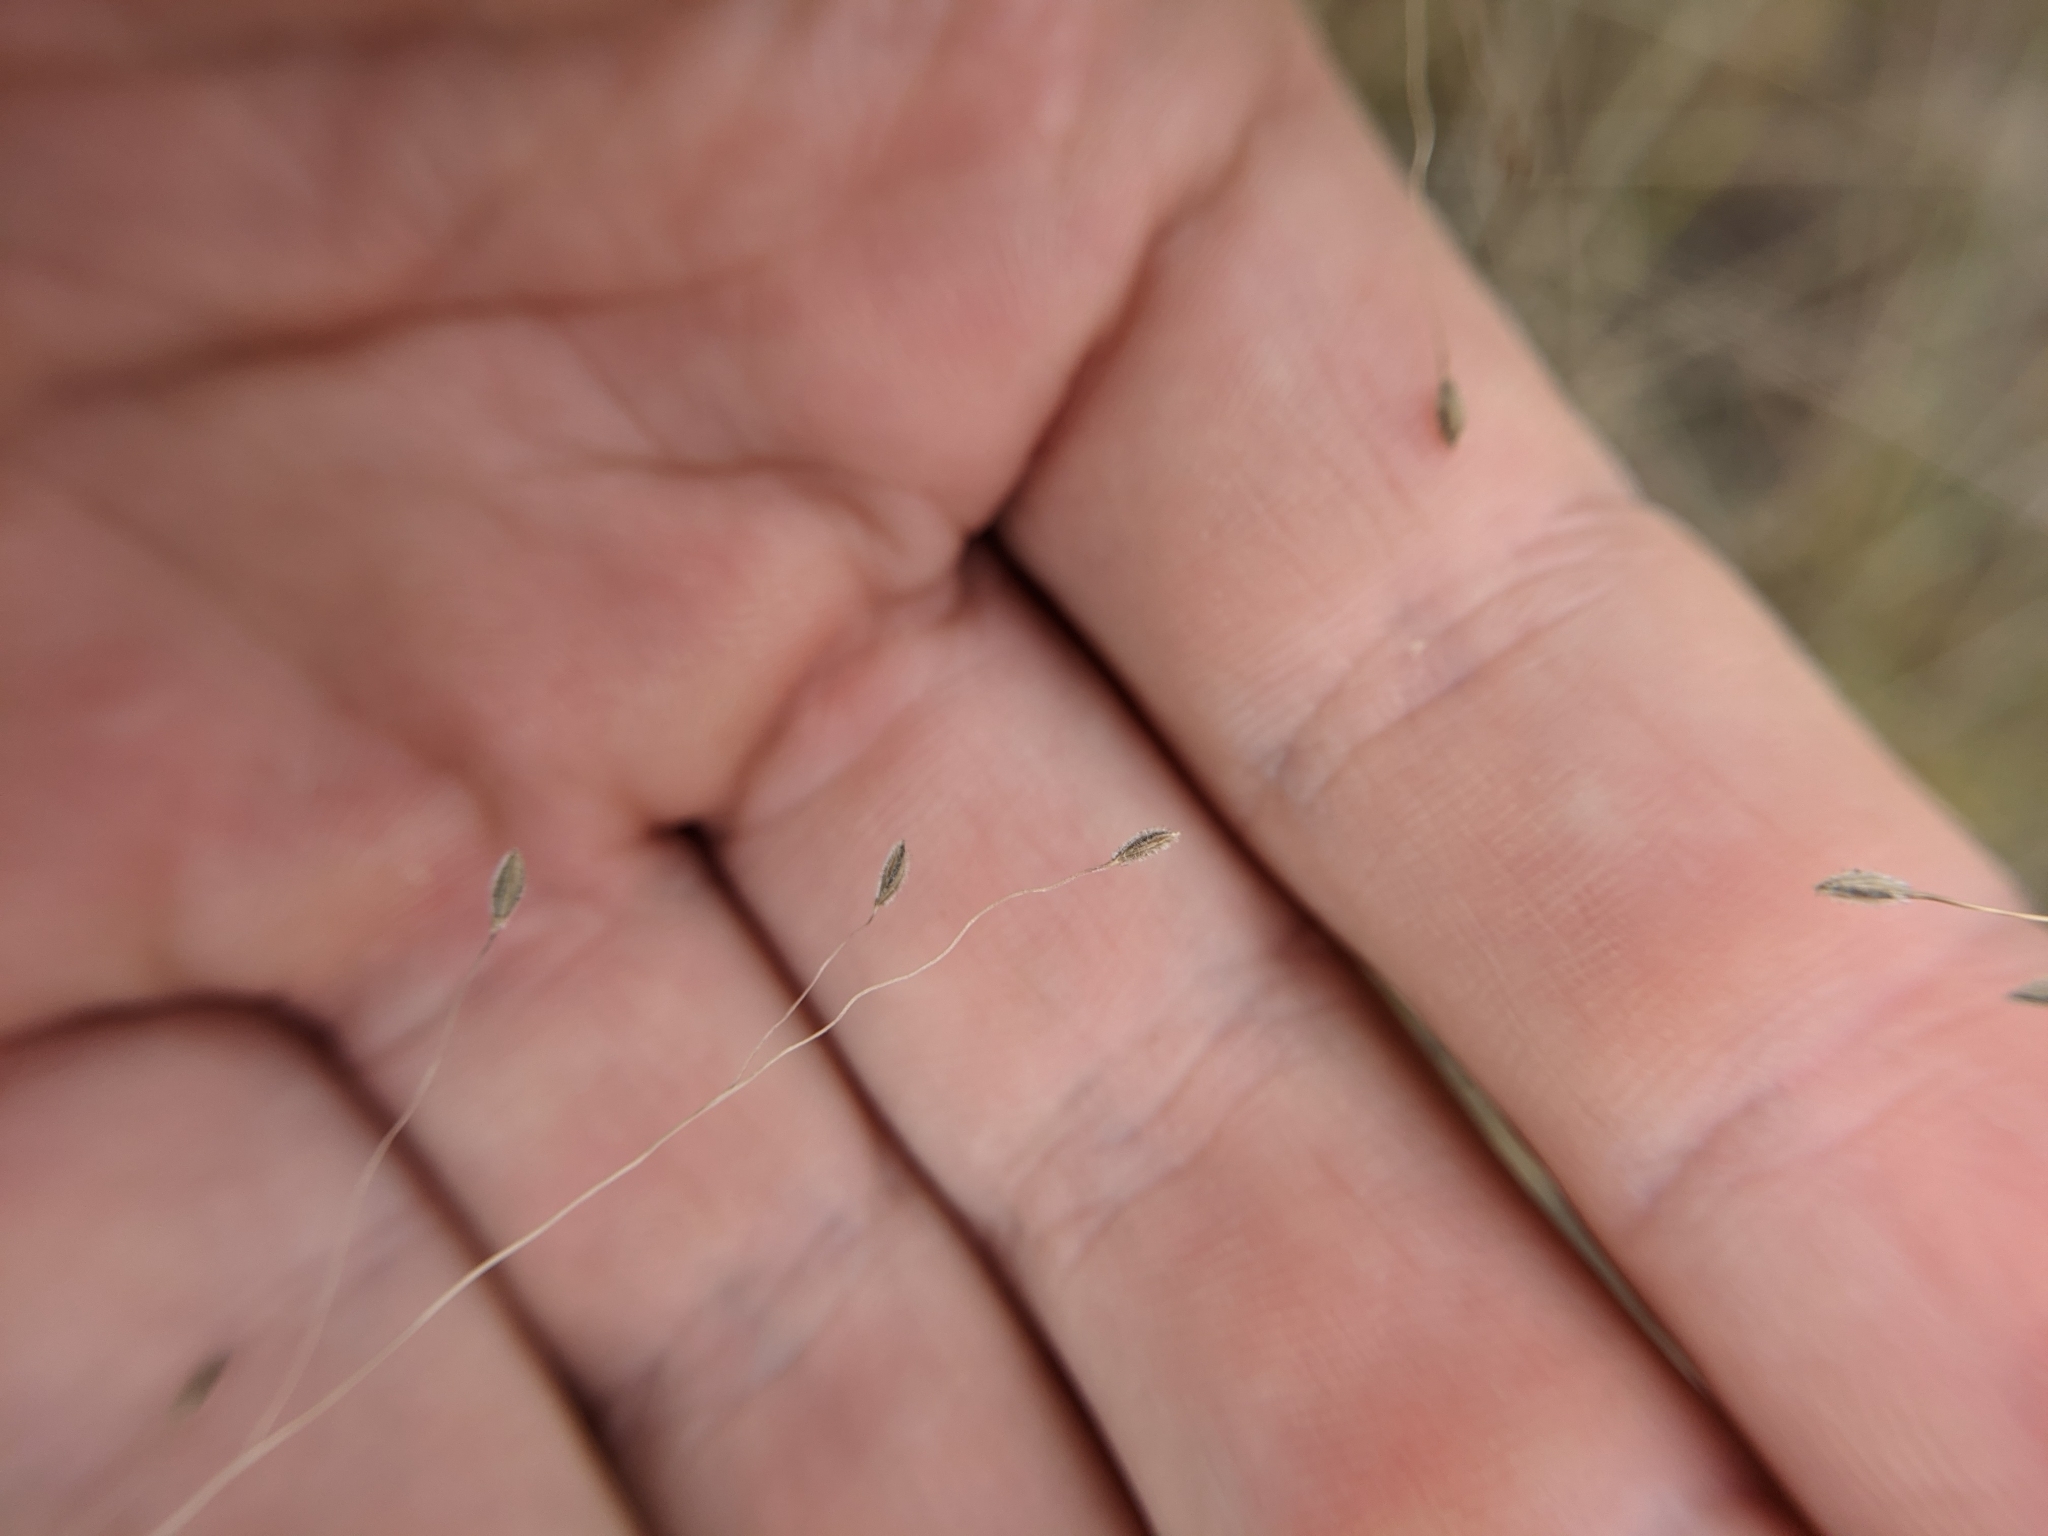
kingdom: Plantae
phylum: Tracheophyta
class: Liliopsida
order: Poales
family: Poaceae
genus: Digitaria
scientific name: Digitaria pubiflora
